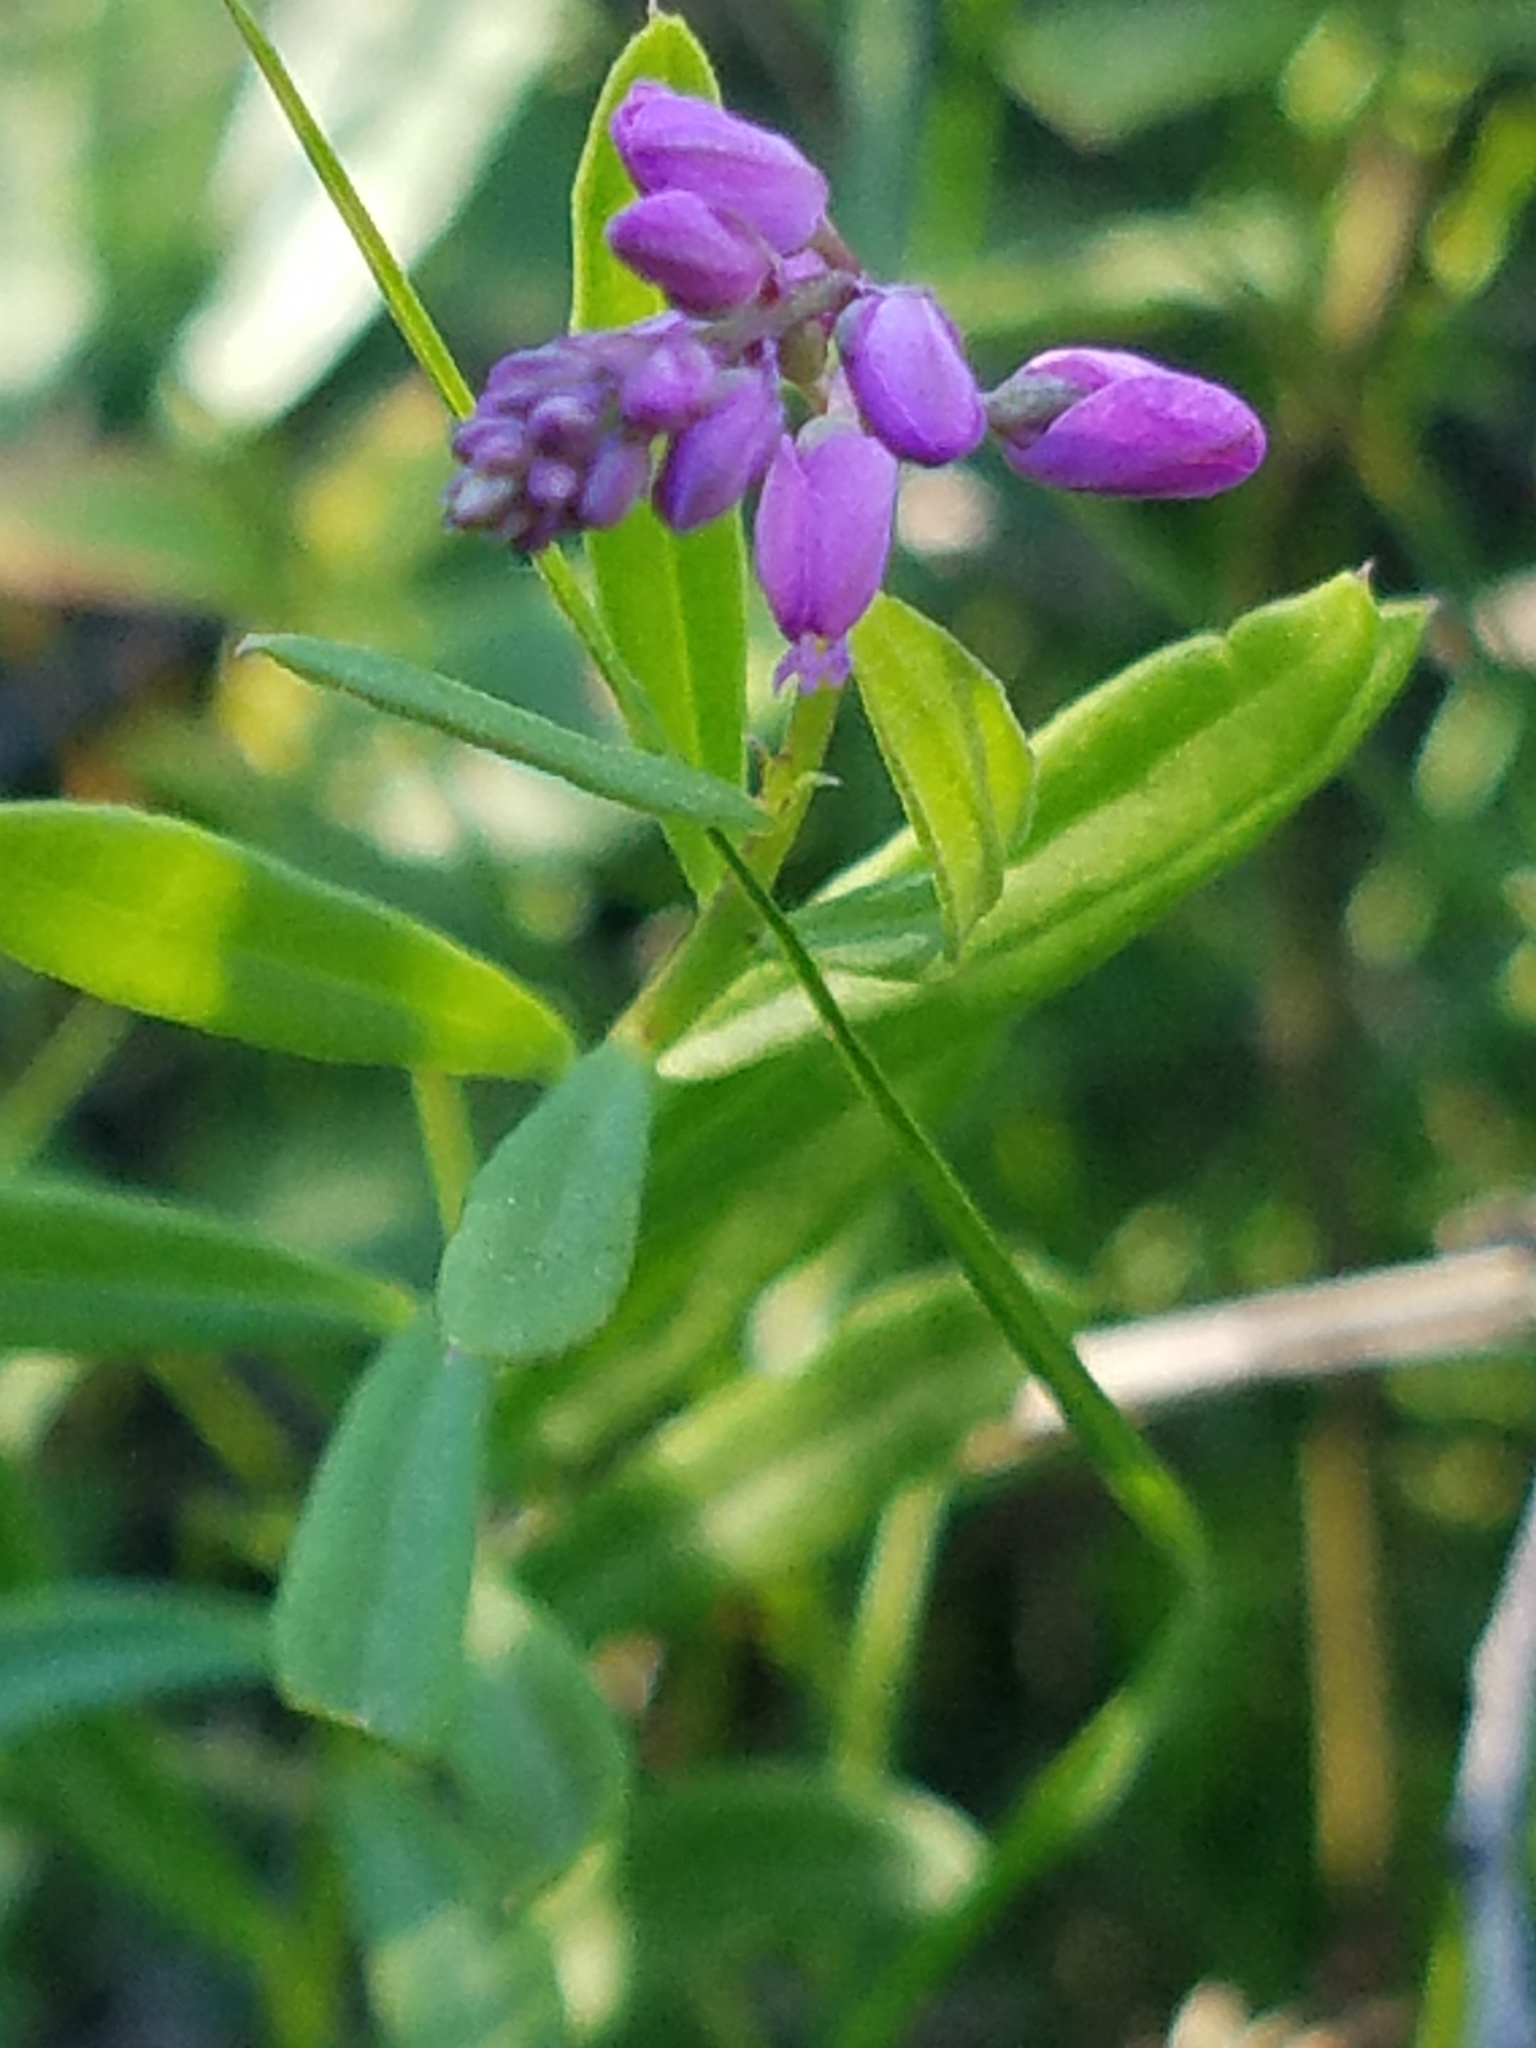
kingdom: Plantae
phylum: Tracheophyta
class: Magnoliopsida
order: Fabales
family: Polygalaceae
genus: Polygala
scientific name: Polygala polygama
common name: Bitter milkwort
